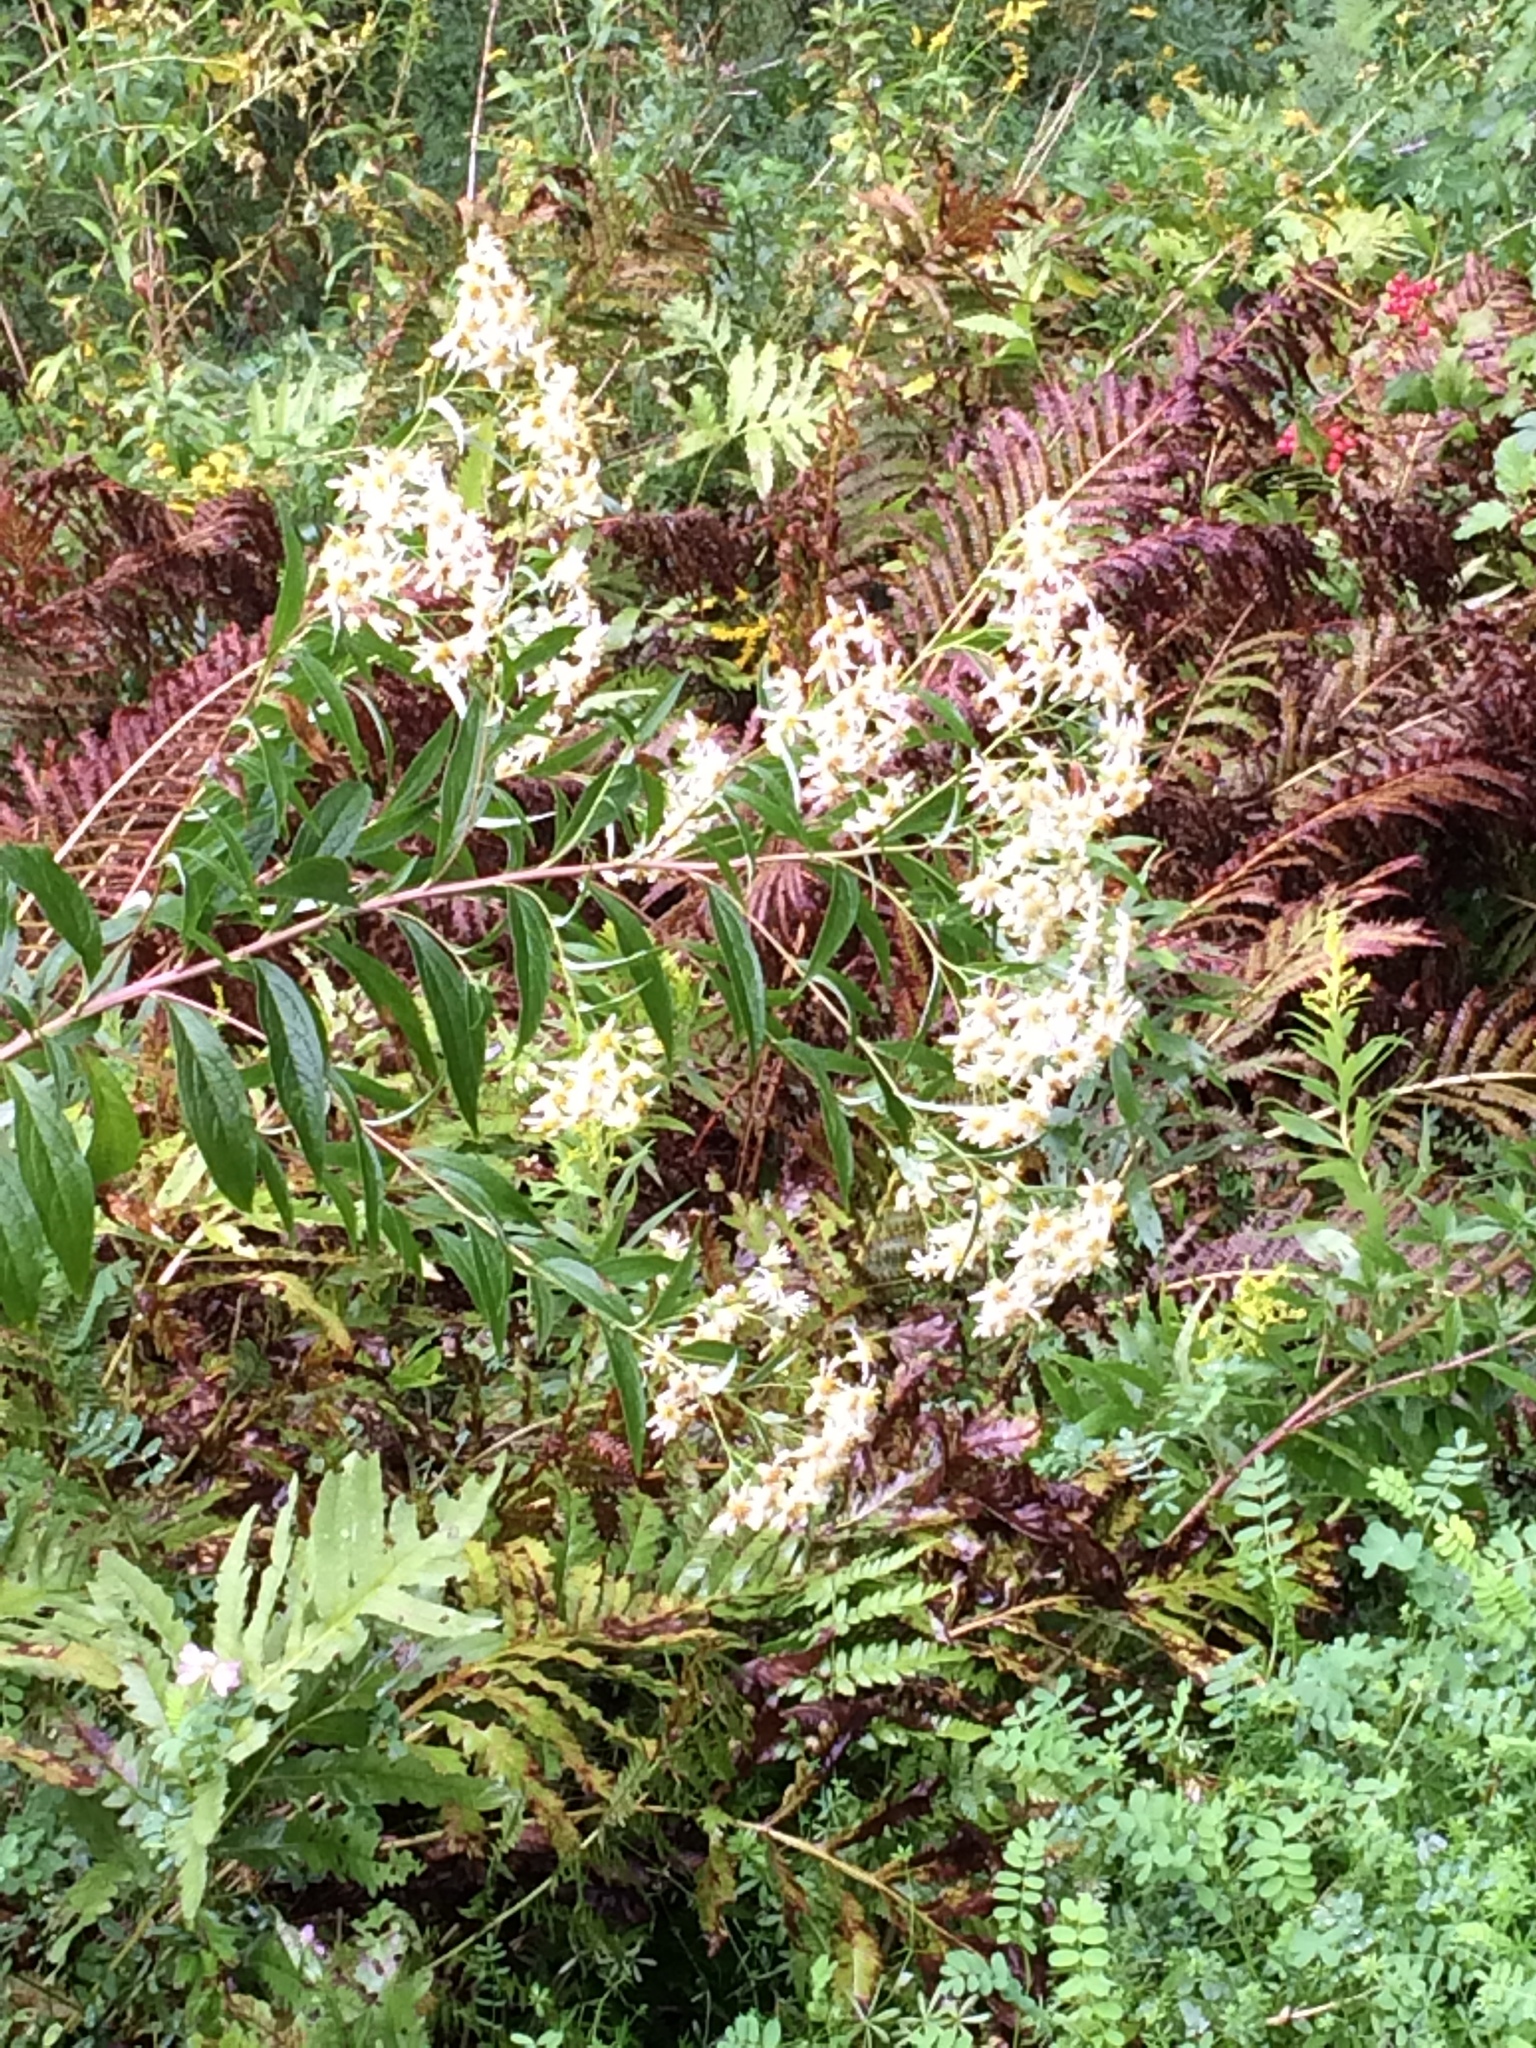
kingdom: Plantae
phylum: Tracheophyta
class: Magnoliopsida
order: Asterales
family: Asteraceae
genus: Doellingeria
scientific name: Doellingeria umbellata
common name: Flat-top white aster
